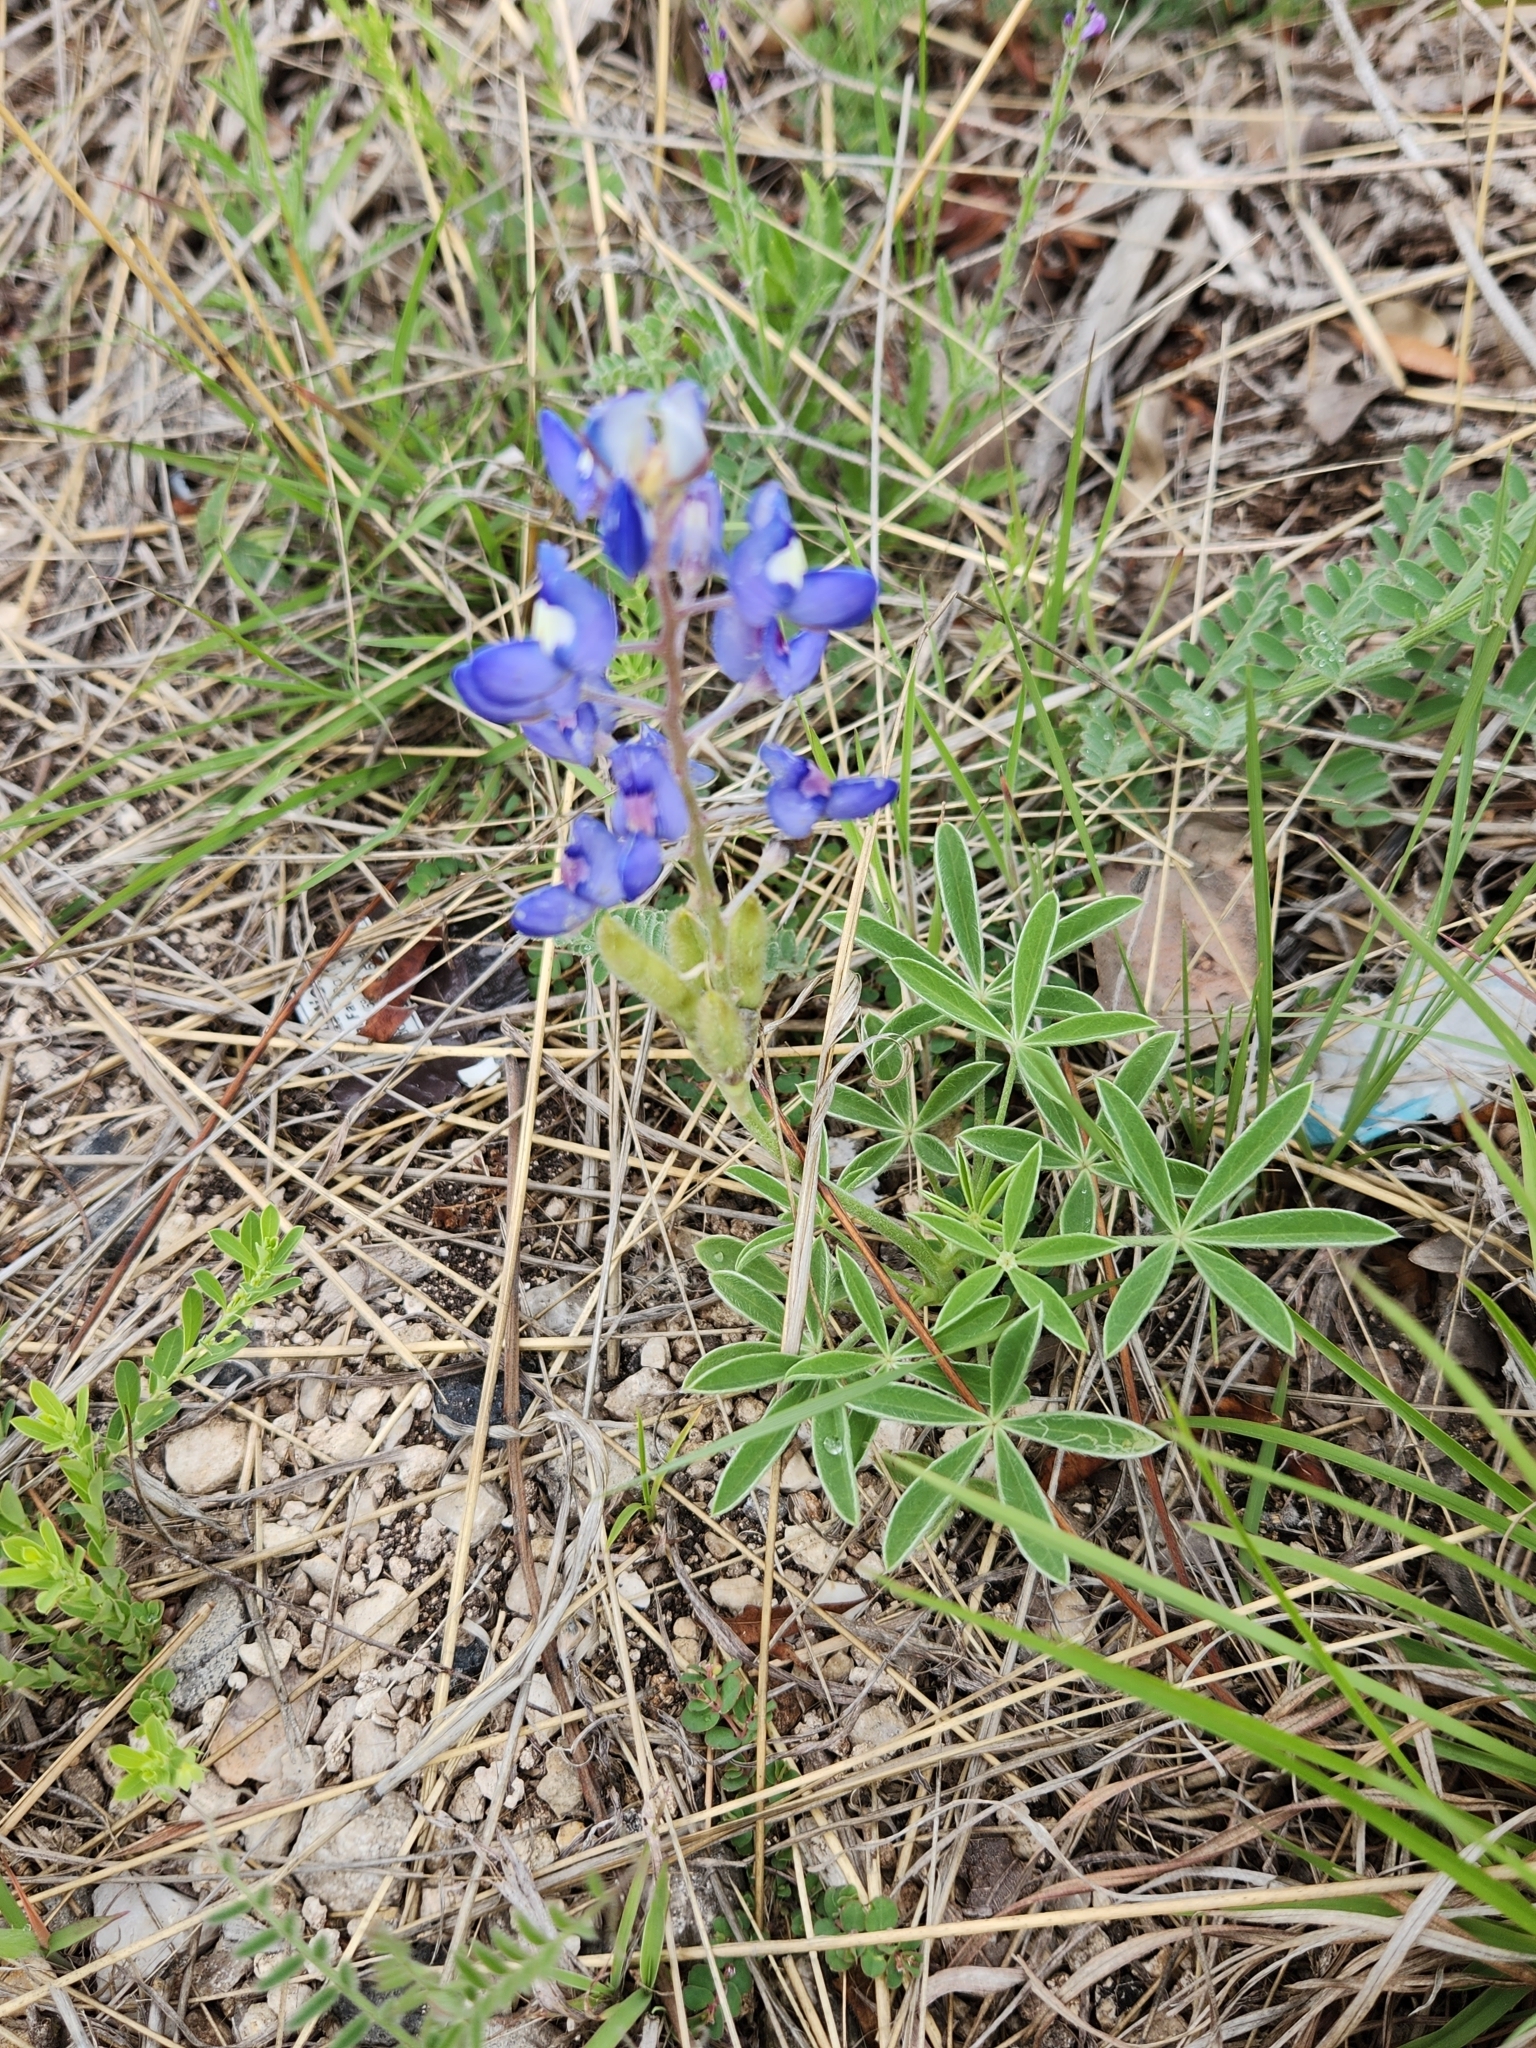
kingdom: Plantae
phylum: Tracheophyta
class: Magnoliopsida
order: Fabales
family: Fabaceae
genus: Lupinus
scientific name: Lupinus texensis
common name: Texas bluebonnet
